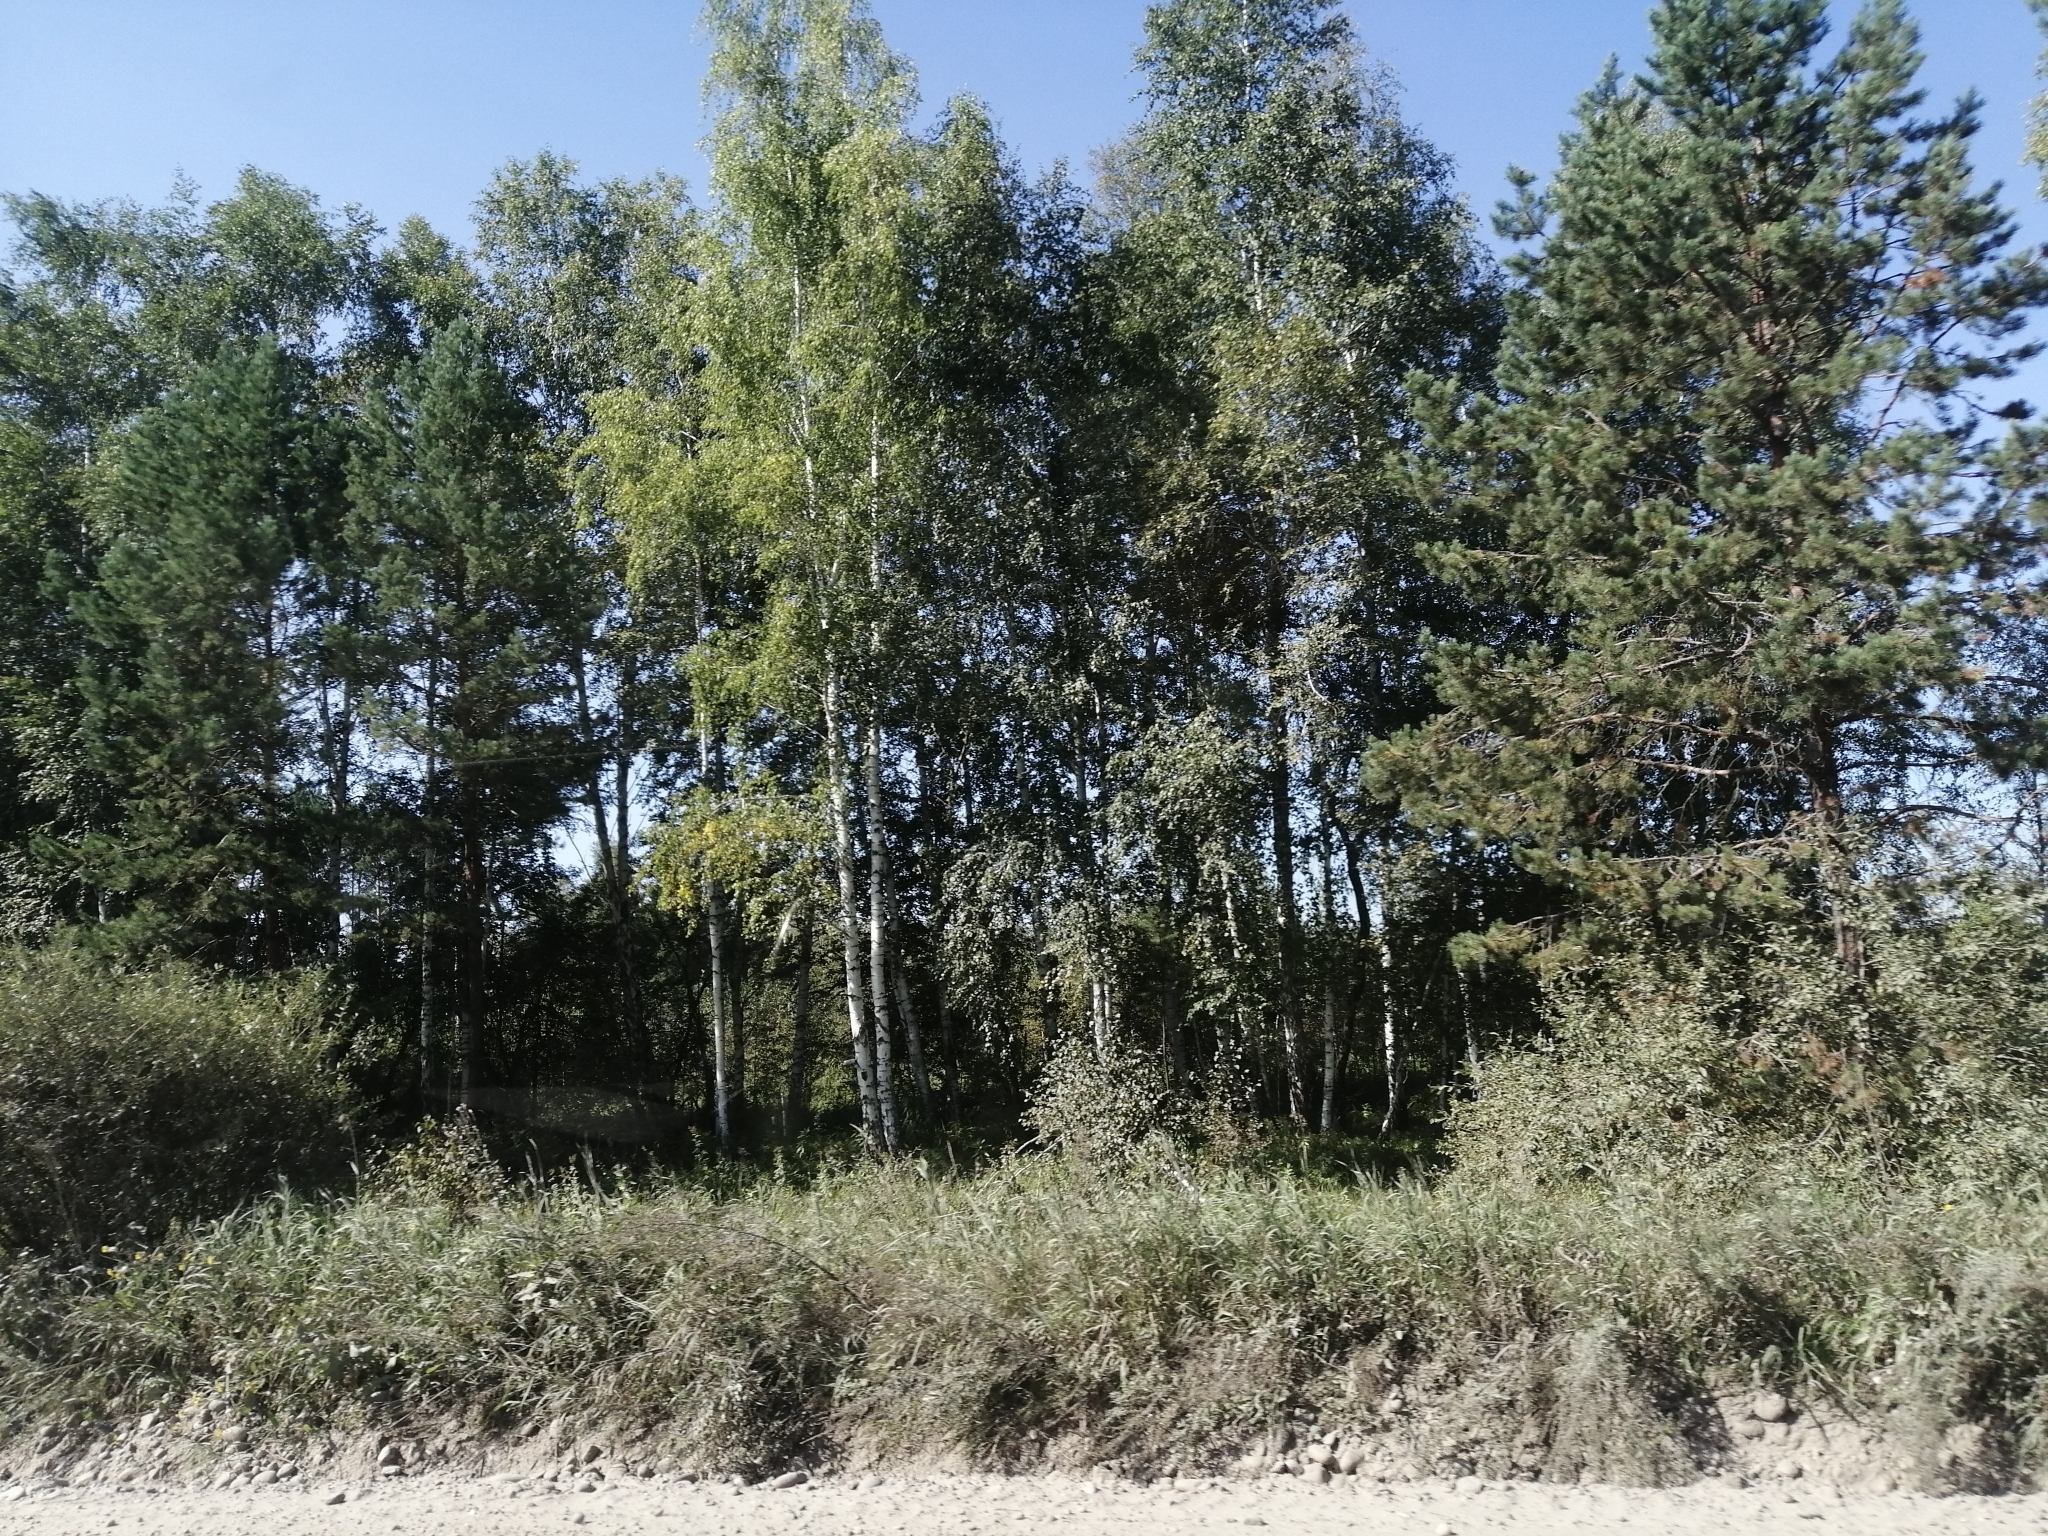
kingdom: Plantae
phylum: Tracheophyta
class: Pinopsida
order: Pinales
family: Pinaceae
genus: Pinus
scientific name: Pinus sylvestris
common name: Scots pine
